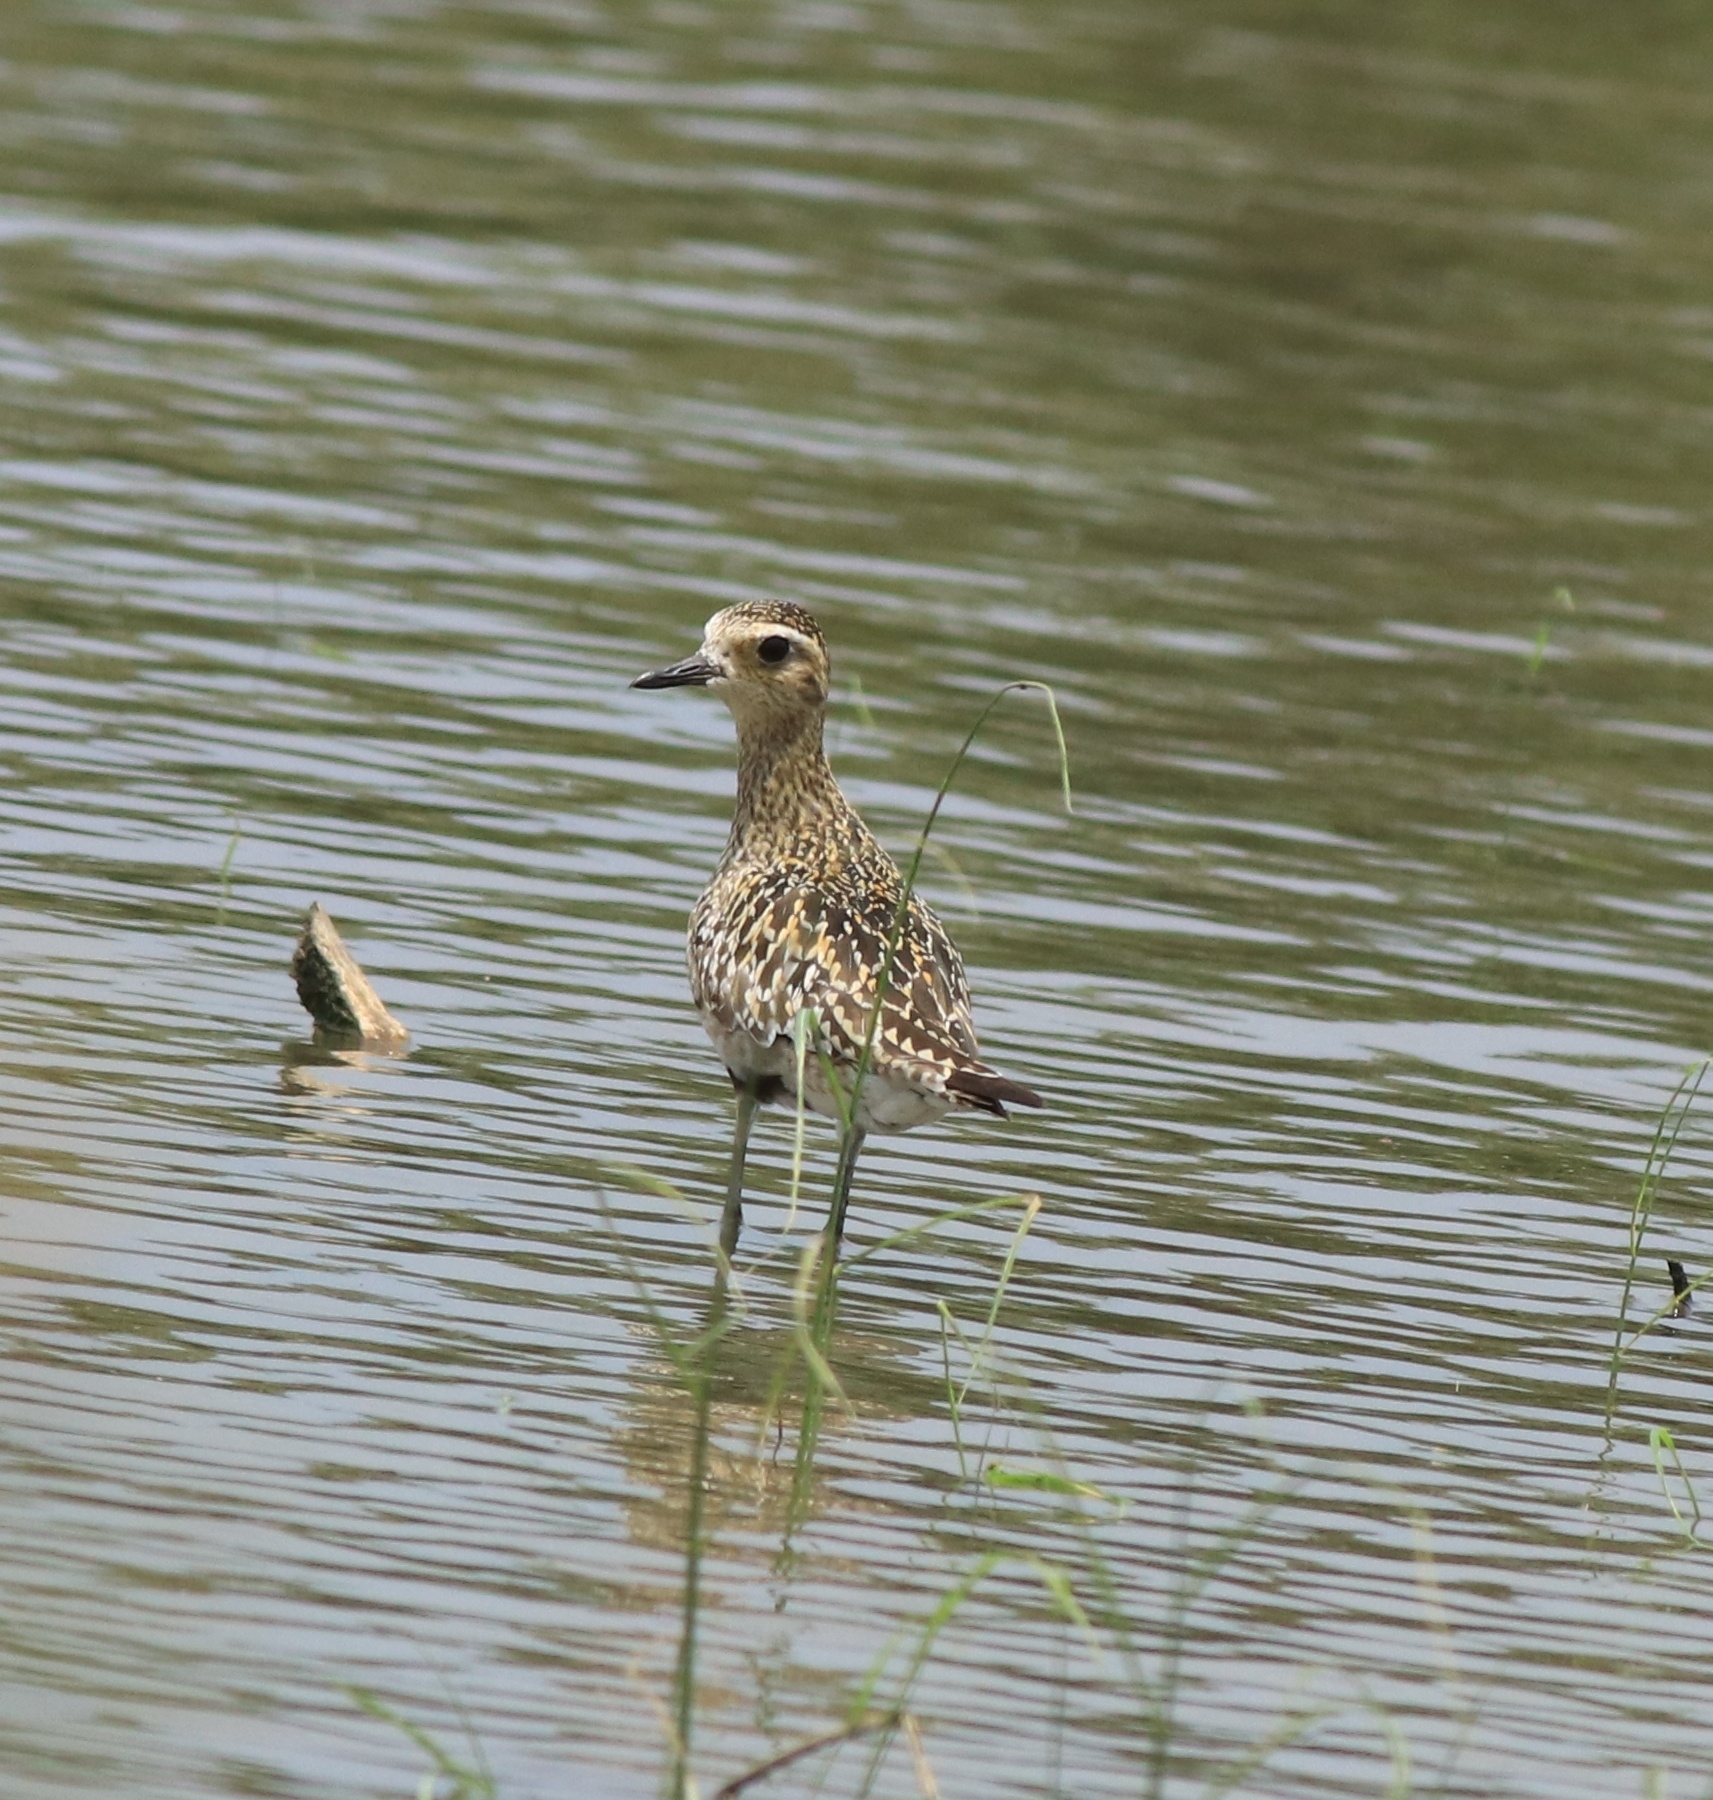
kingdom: Animalia
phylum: Chordata
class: Aves
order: Charadriiformes
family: Charadriidae
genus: Pluvialis
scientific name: Pluvialis fulva
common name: Pacific golden plover
